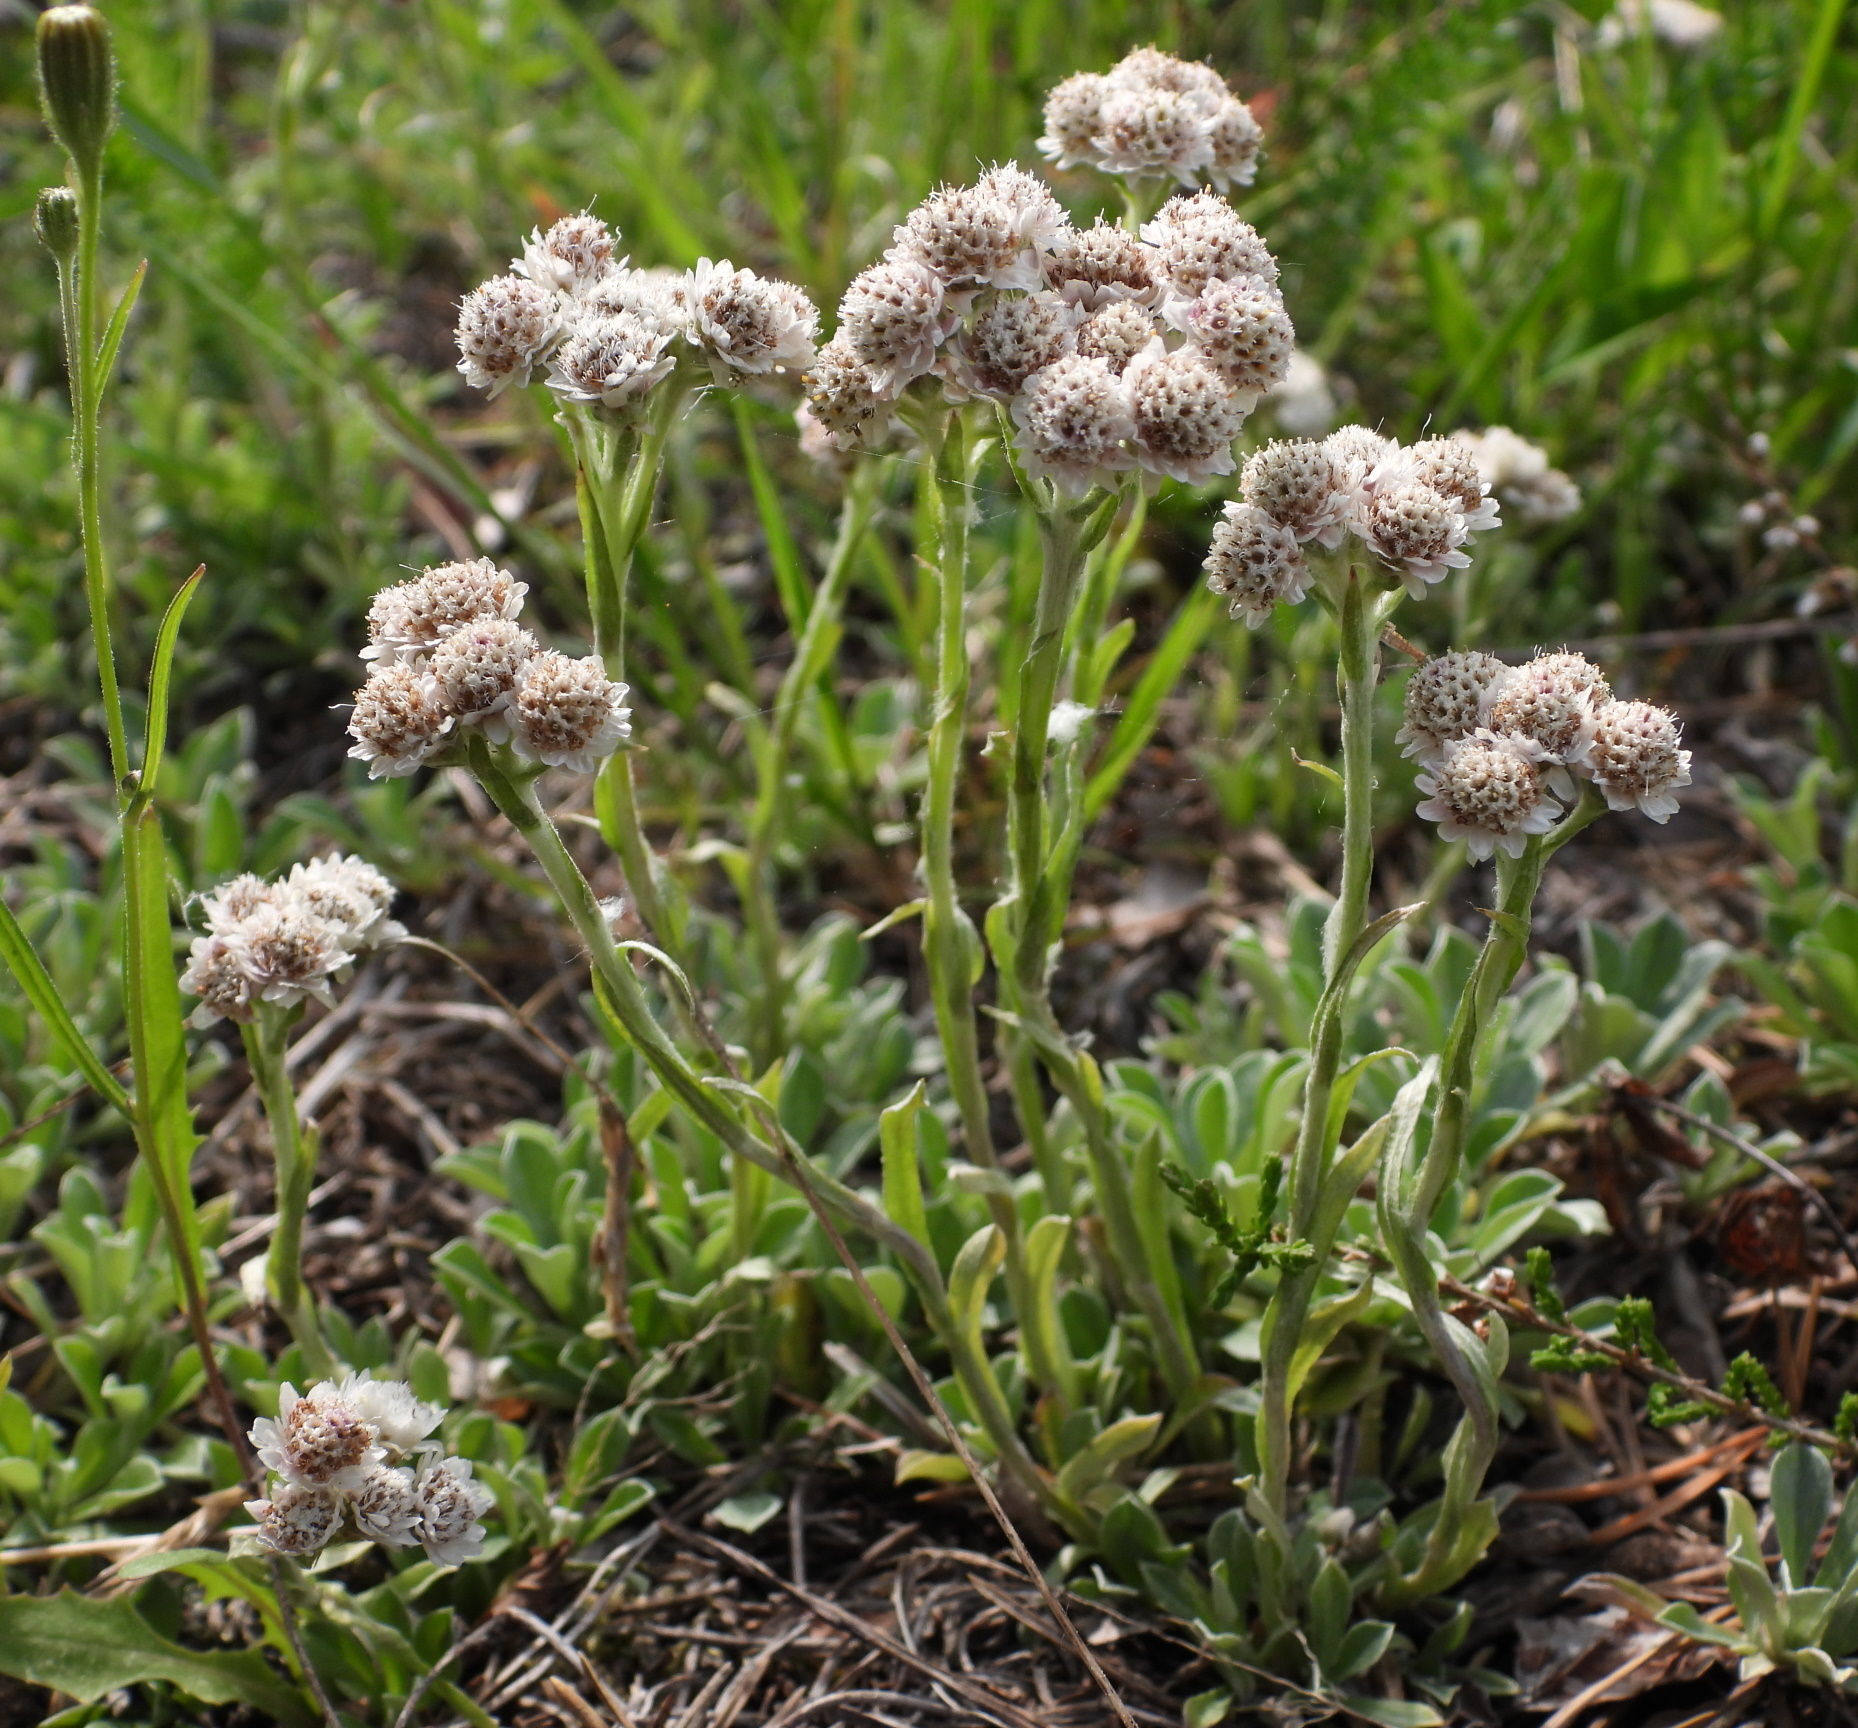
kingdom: Plantae
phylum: Tracheophyta
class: Magnoliopsida
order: Asterales
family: Asteraceae
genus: Antennaria
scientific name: Antennaria dioica
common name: Mountain everlasting
